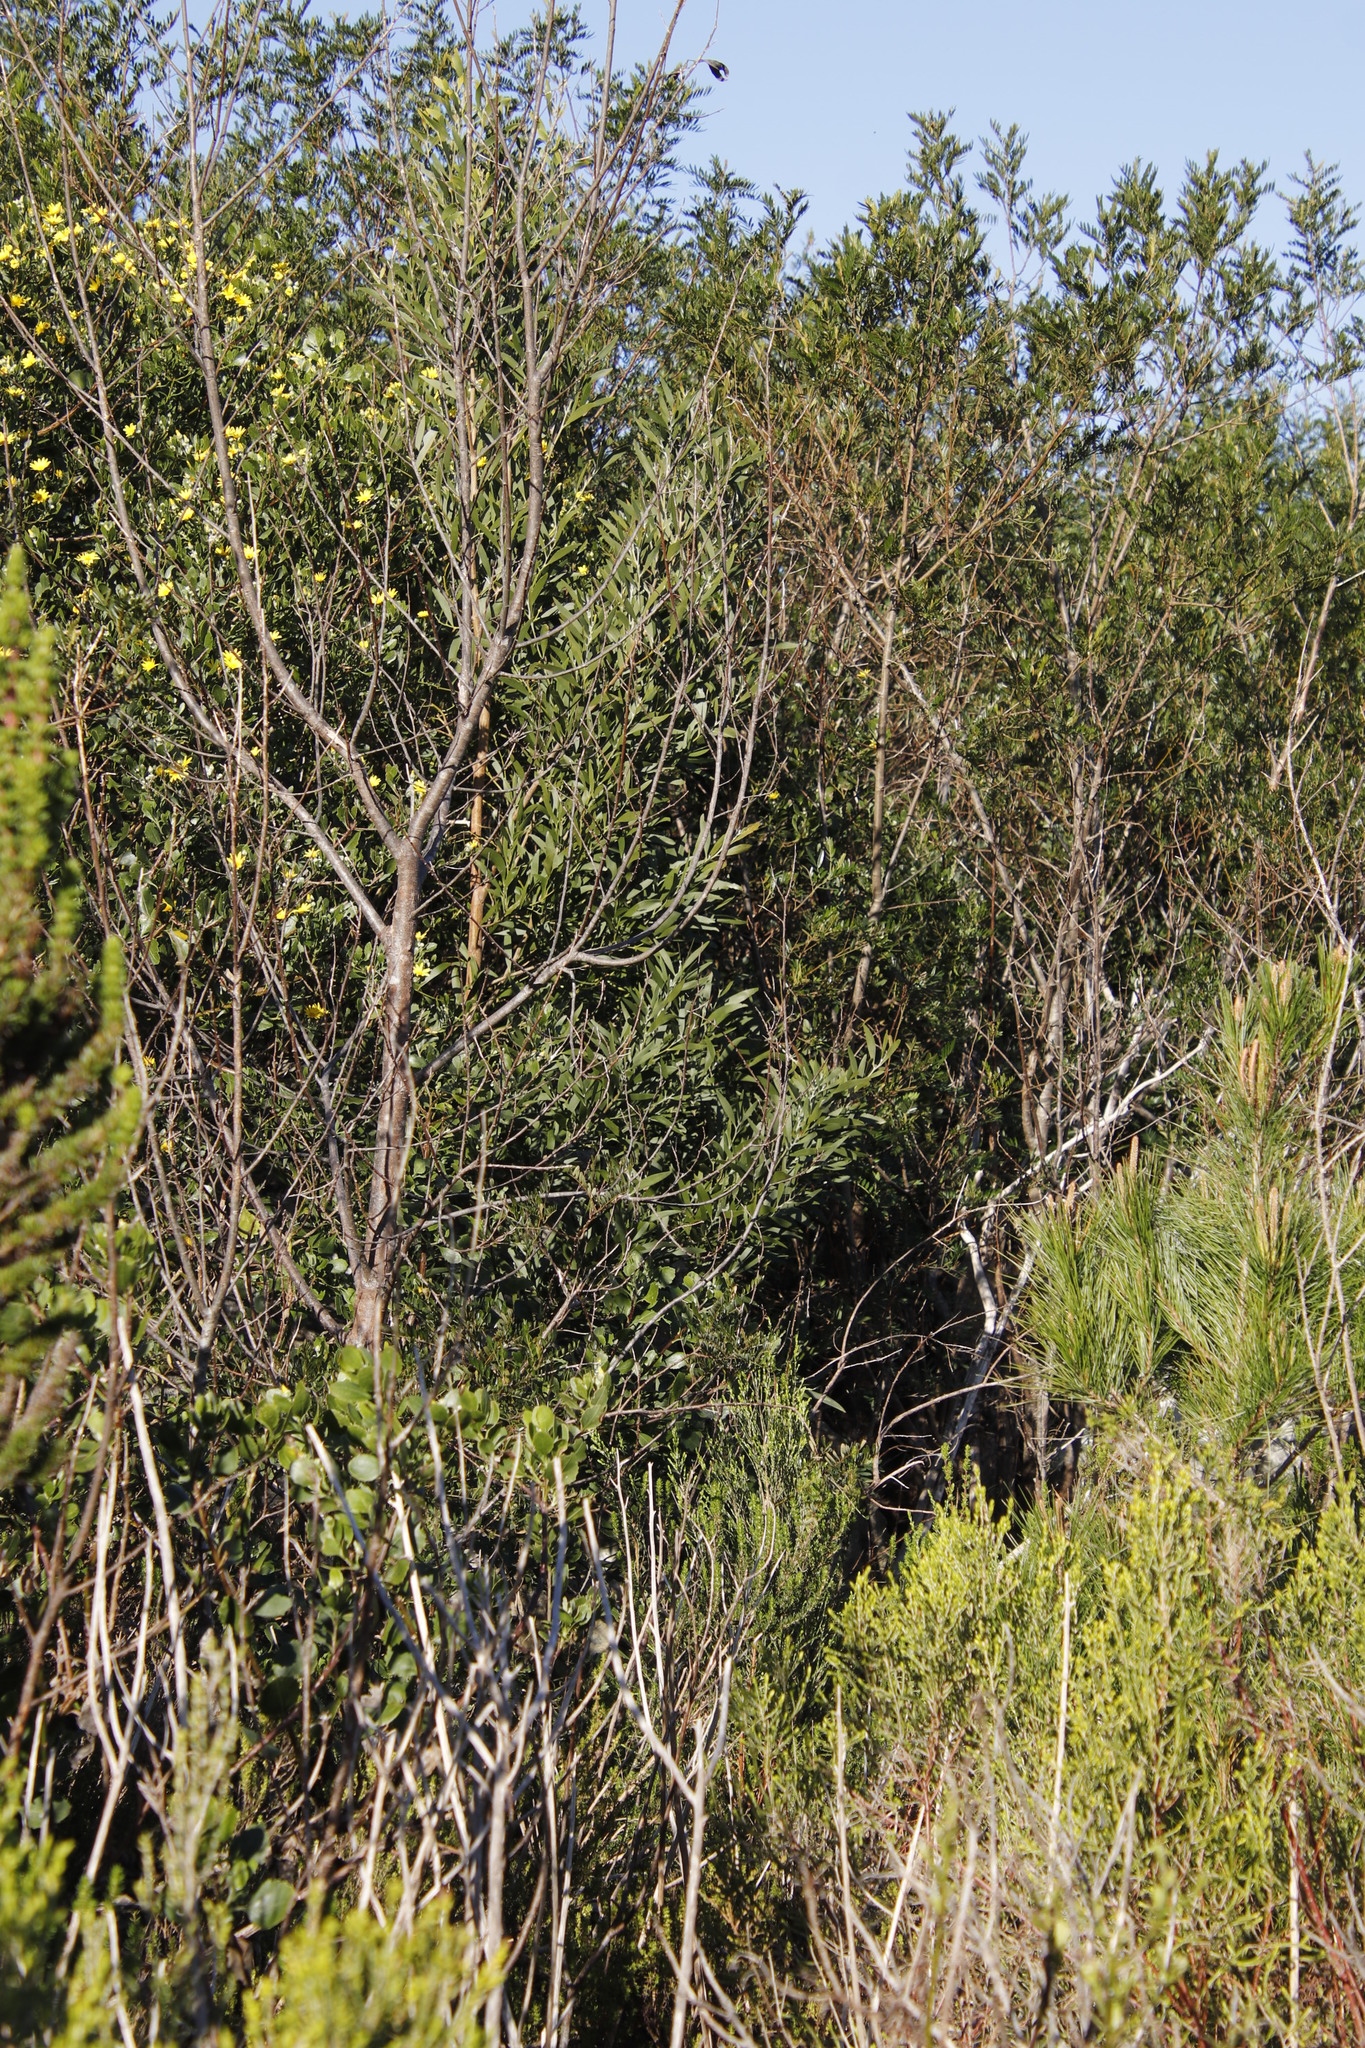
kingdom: Plantae
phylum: Tracheophyta
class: Magnoliopsida
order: Fabales
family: Fabaceae
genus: Acacia
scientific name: Acacia melanoxylon
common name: Blackwood
